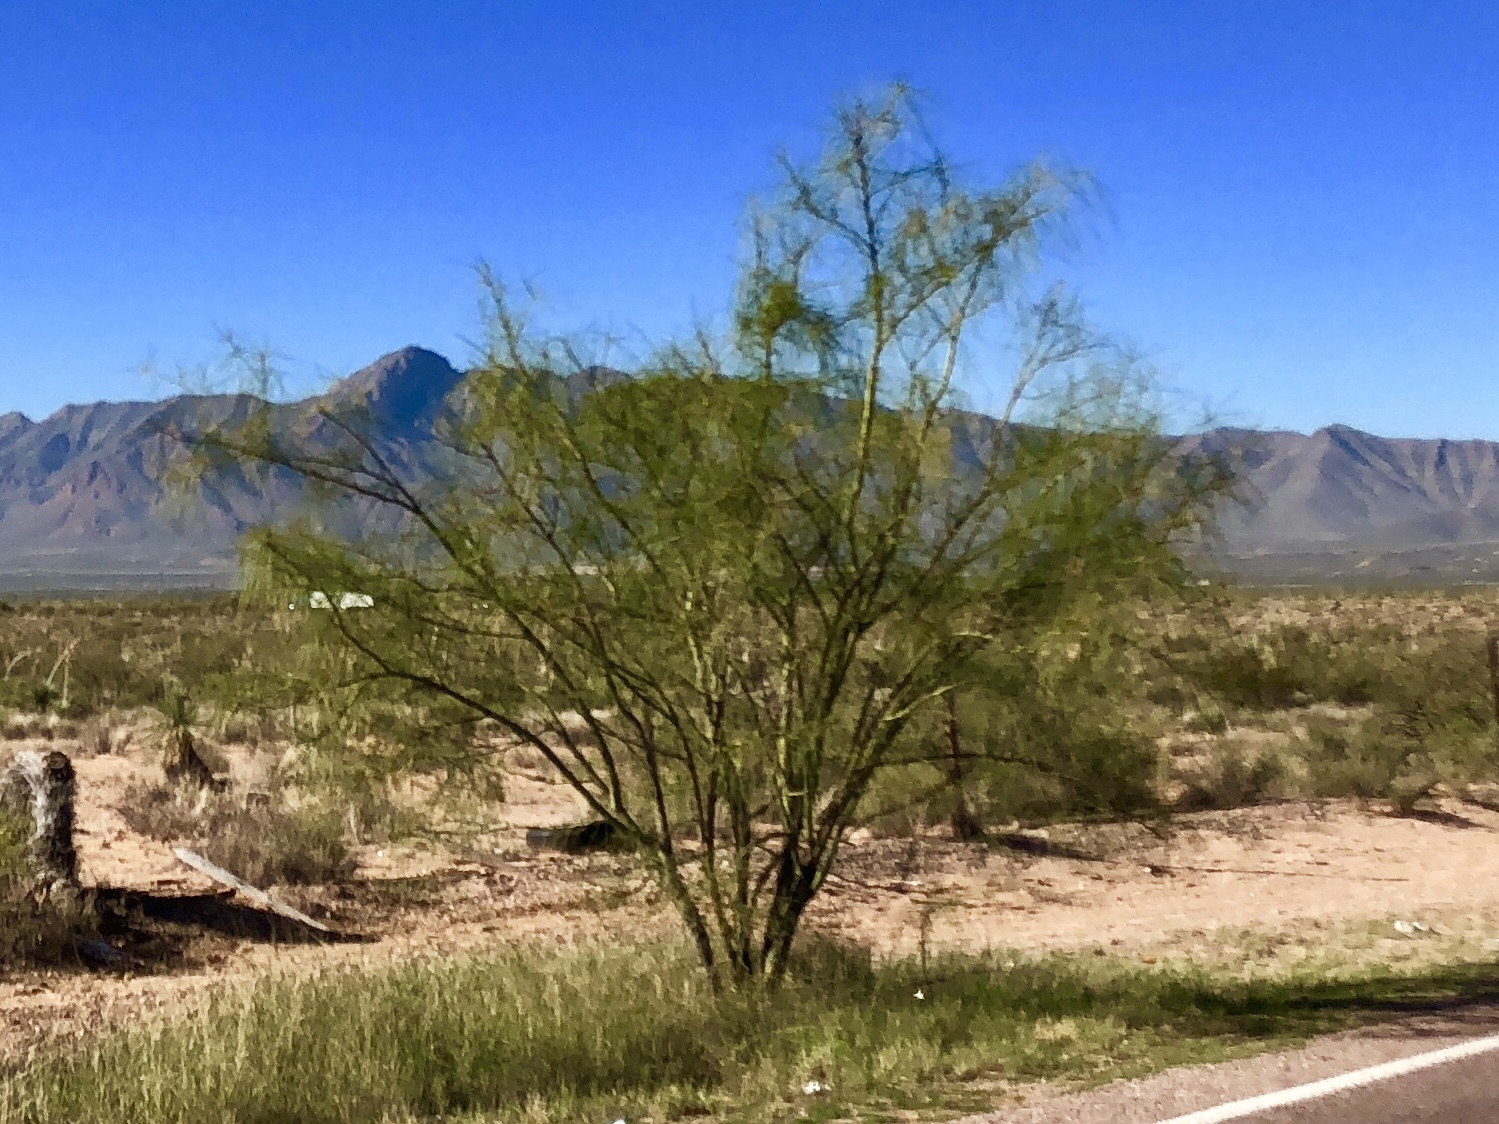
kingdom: Plantae
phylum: Tracheophyta
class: Magnoliopsida
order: Fabales
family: Fabaceae
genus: Parkinsonia
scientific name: Parkinsonia aculeata
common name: Jerusalem thorn
